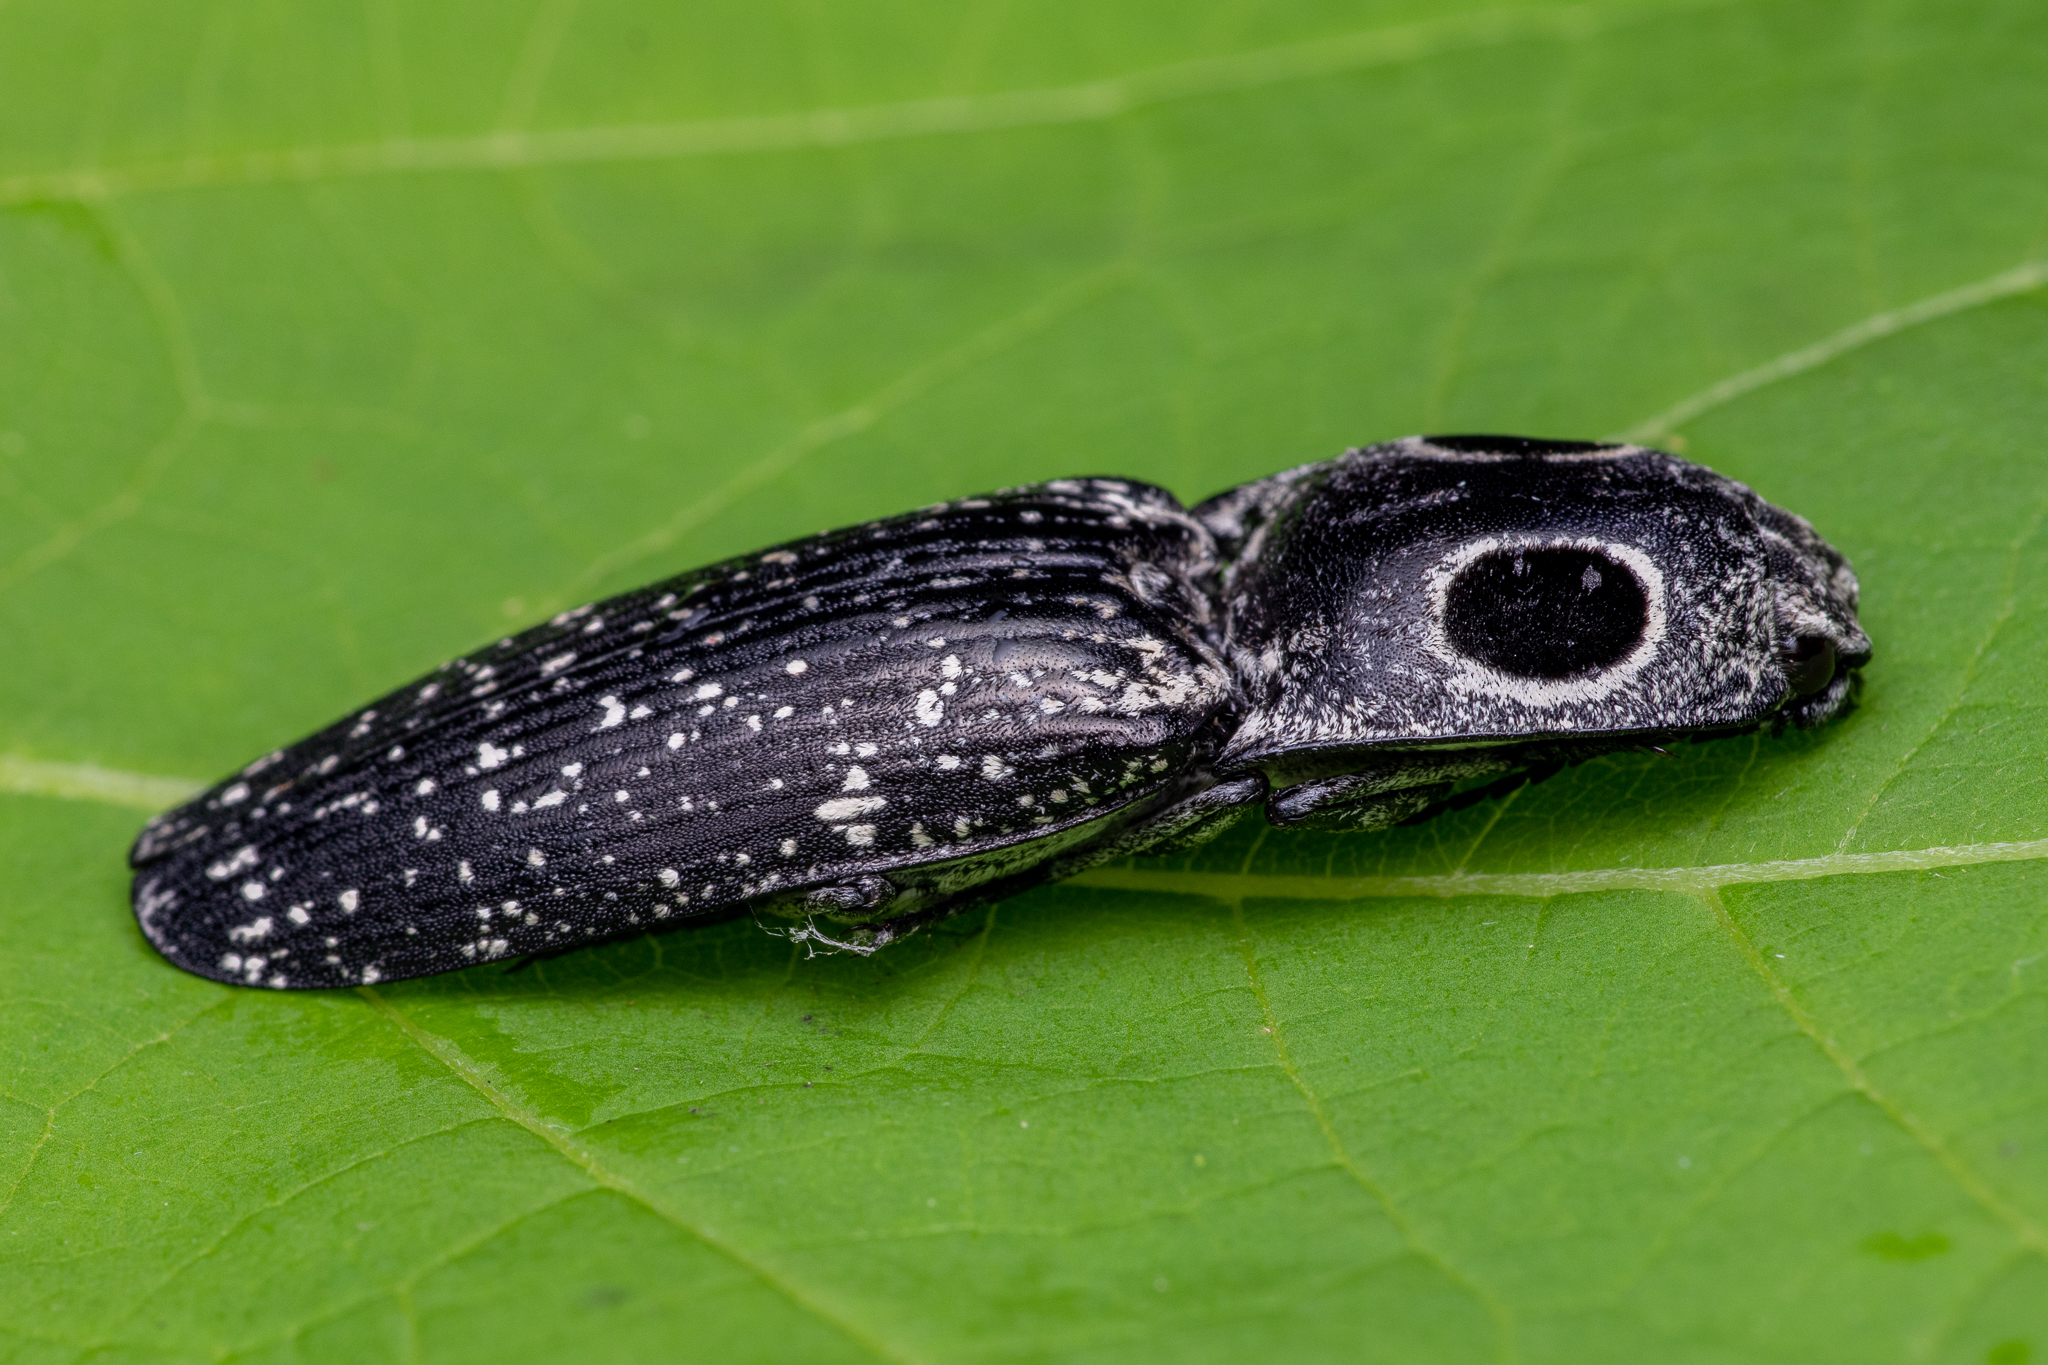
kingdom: Animalia
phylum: Arthropoda
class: Insecta
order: Coleoptera
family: Elateridae
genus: Alaus
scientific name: Alaus oculatus
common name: Eastern eyed click beetle
